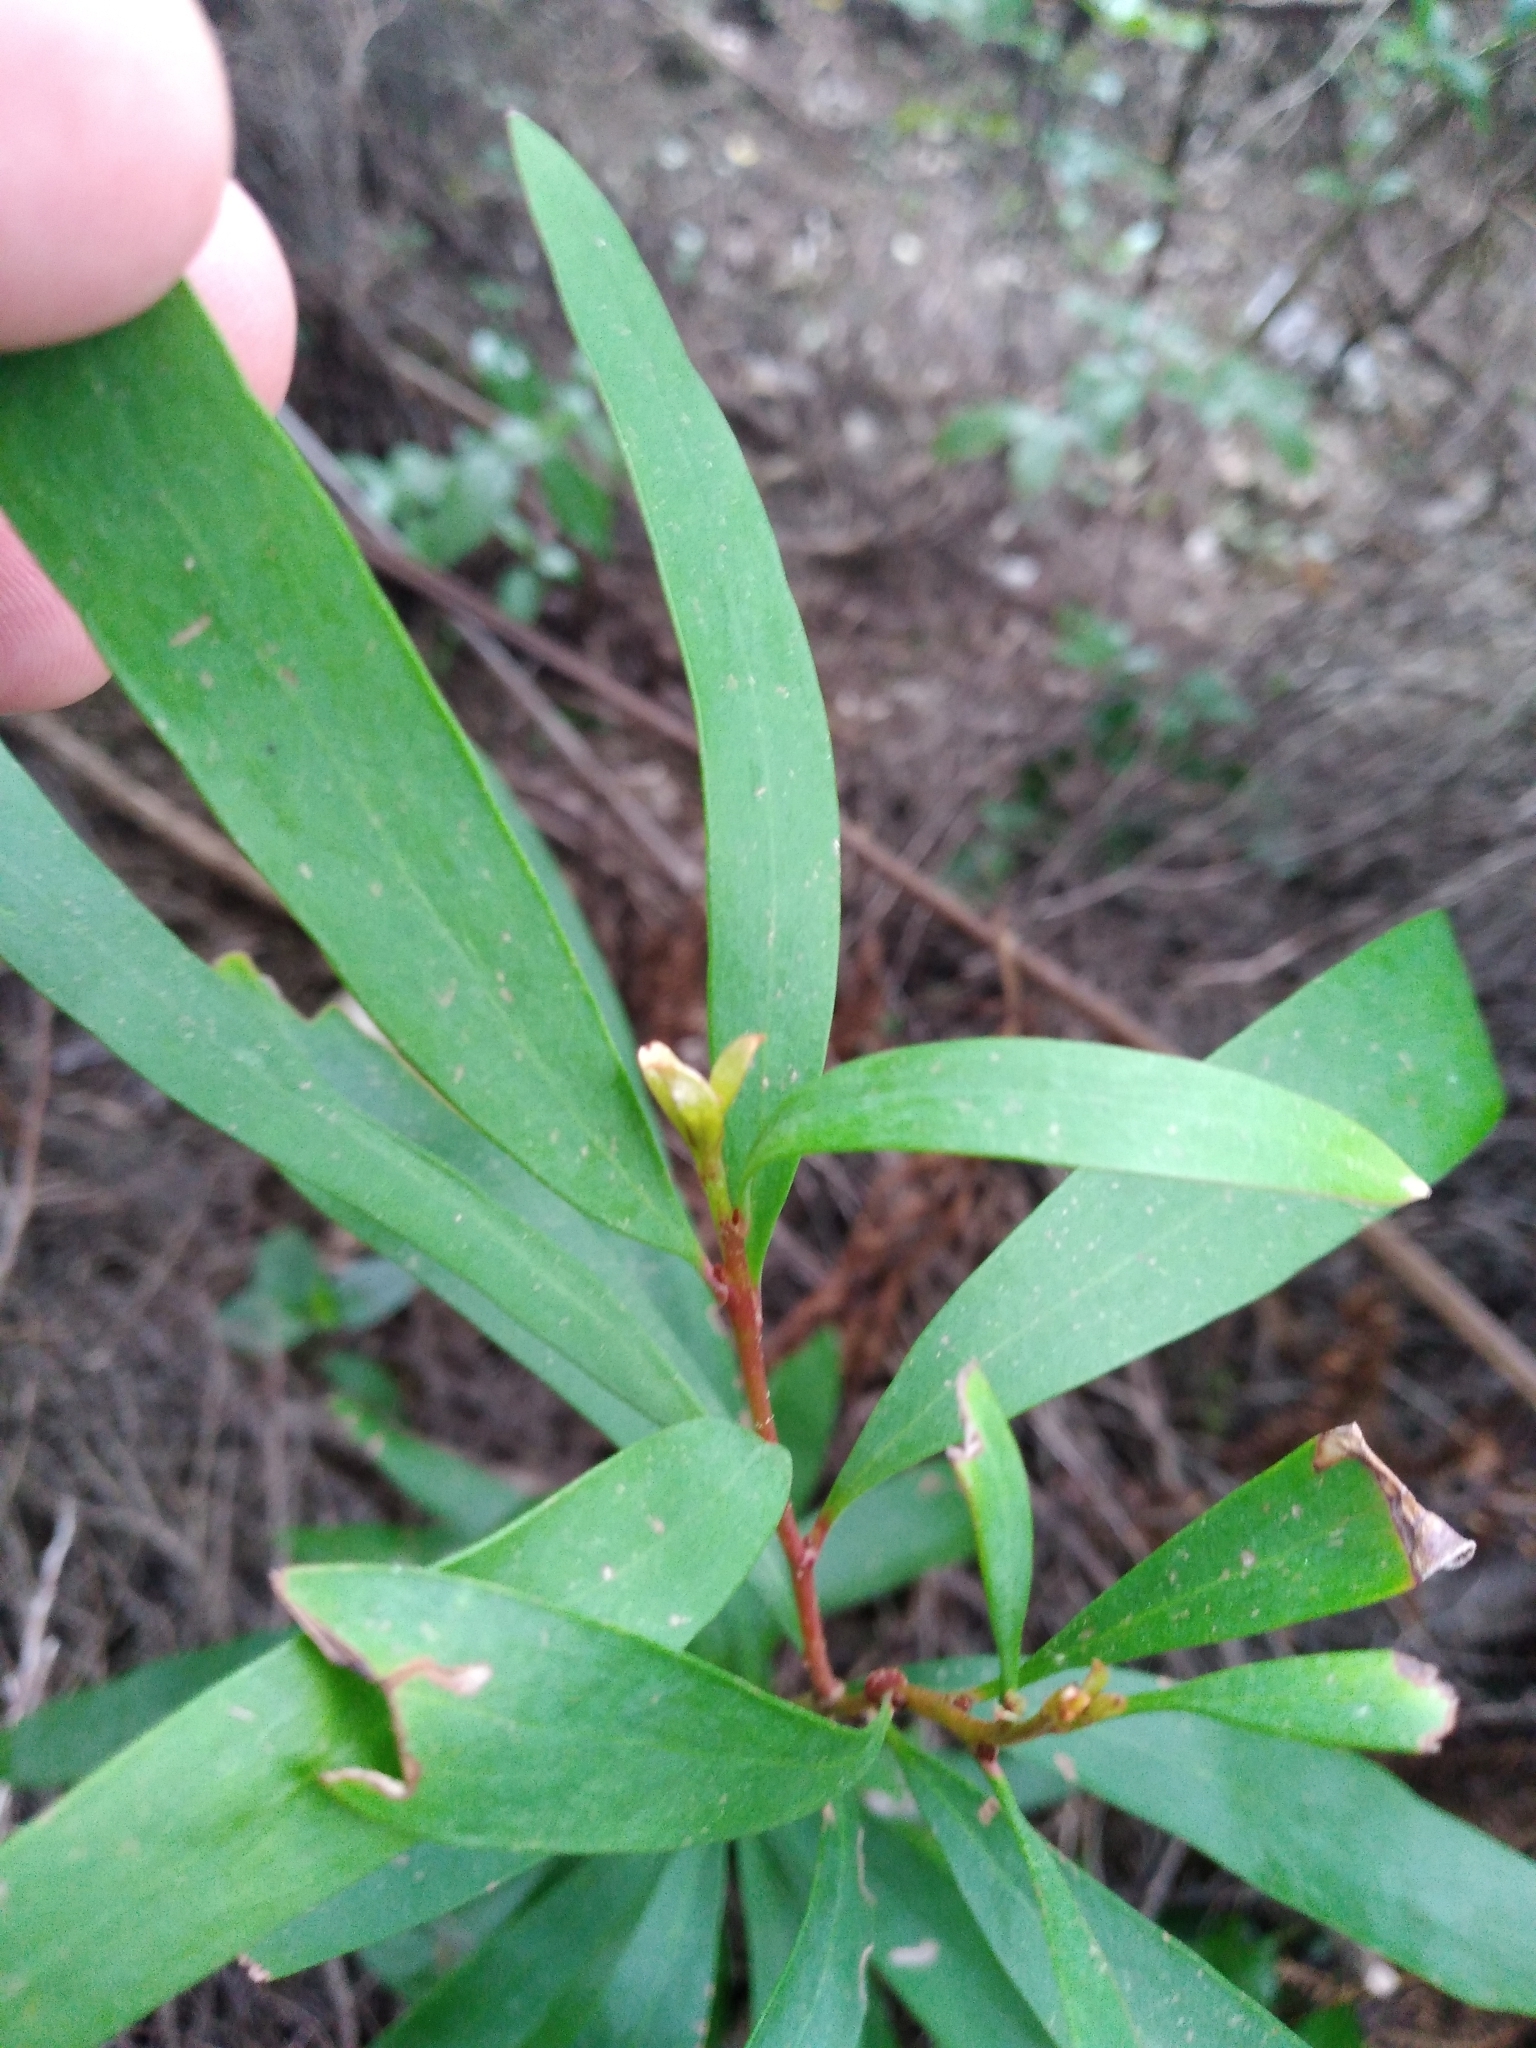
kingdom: Plantae
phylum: Tracheophyta
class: Magnoliopsida
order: Proteales
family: Proteaceae
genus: Hakea
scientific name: Hakea salicifolia
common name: Willow hakea
